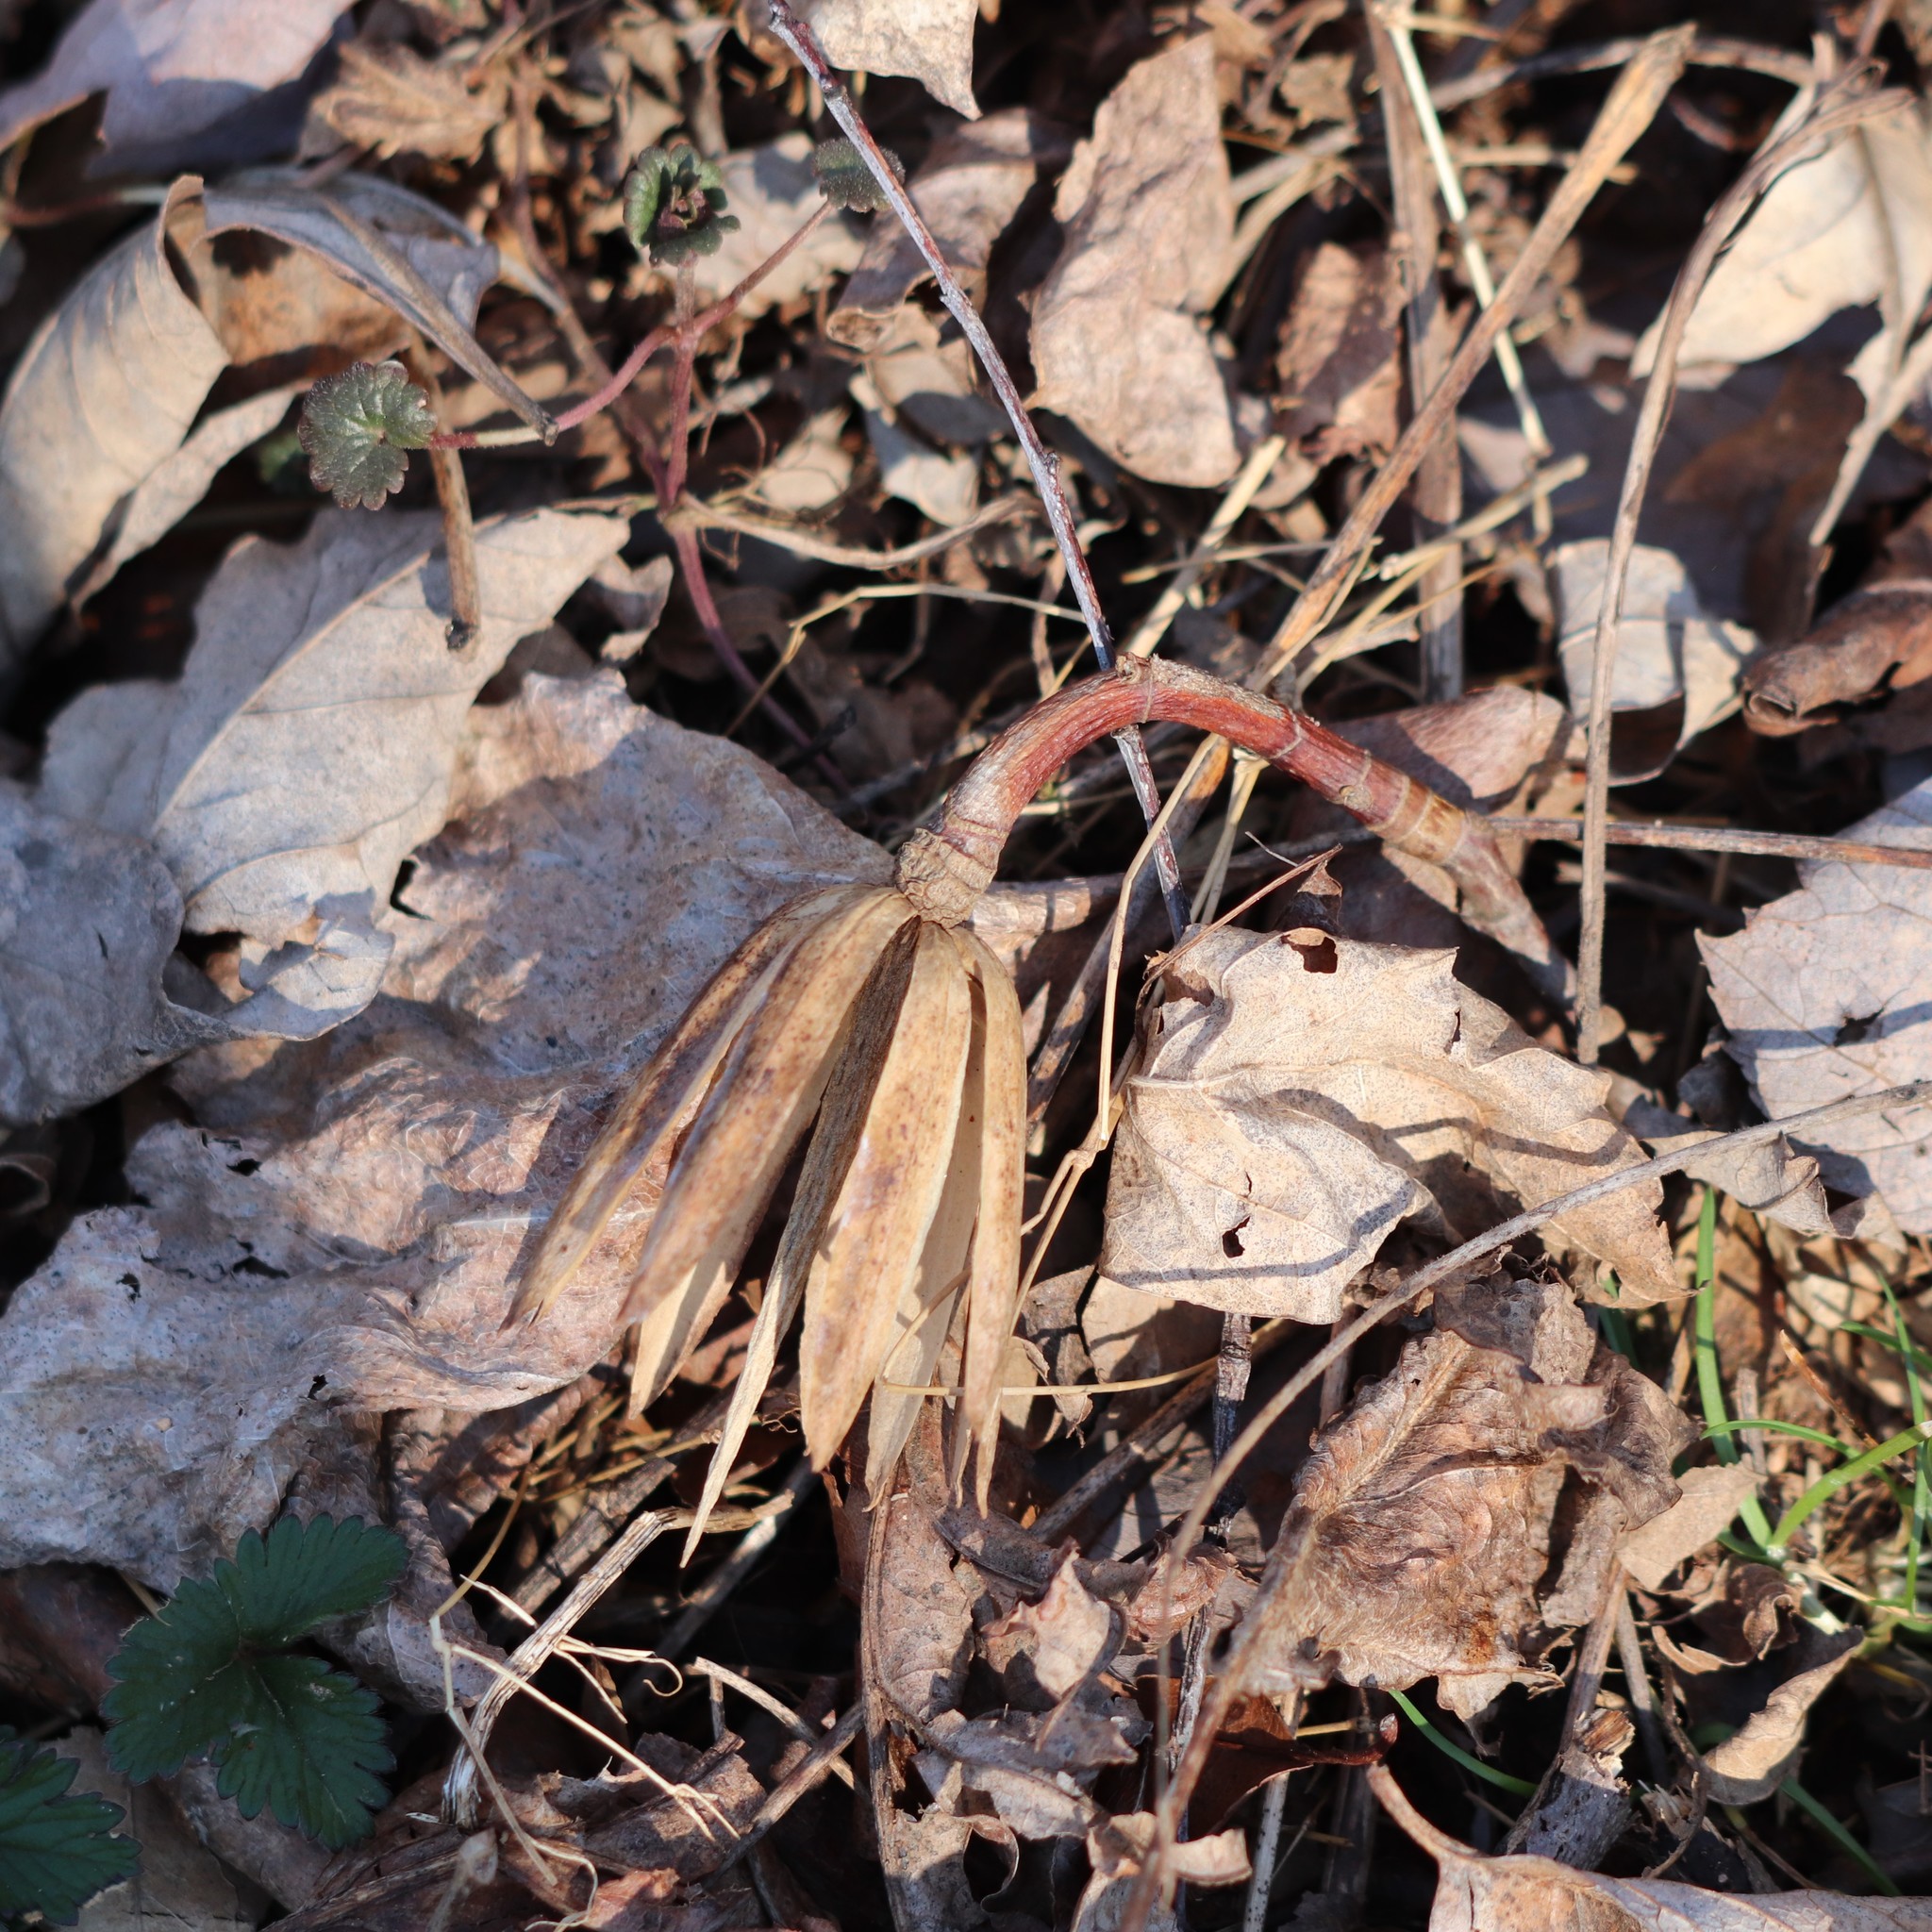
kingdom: Plantae
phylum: Tracheophyta
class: Magnoliopsida
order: Magnoliales
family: Magnoliaceae
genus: Liriodendron
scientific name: Liriodendron tulipifera
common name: Tulip tree
